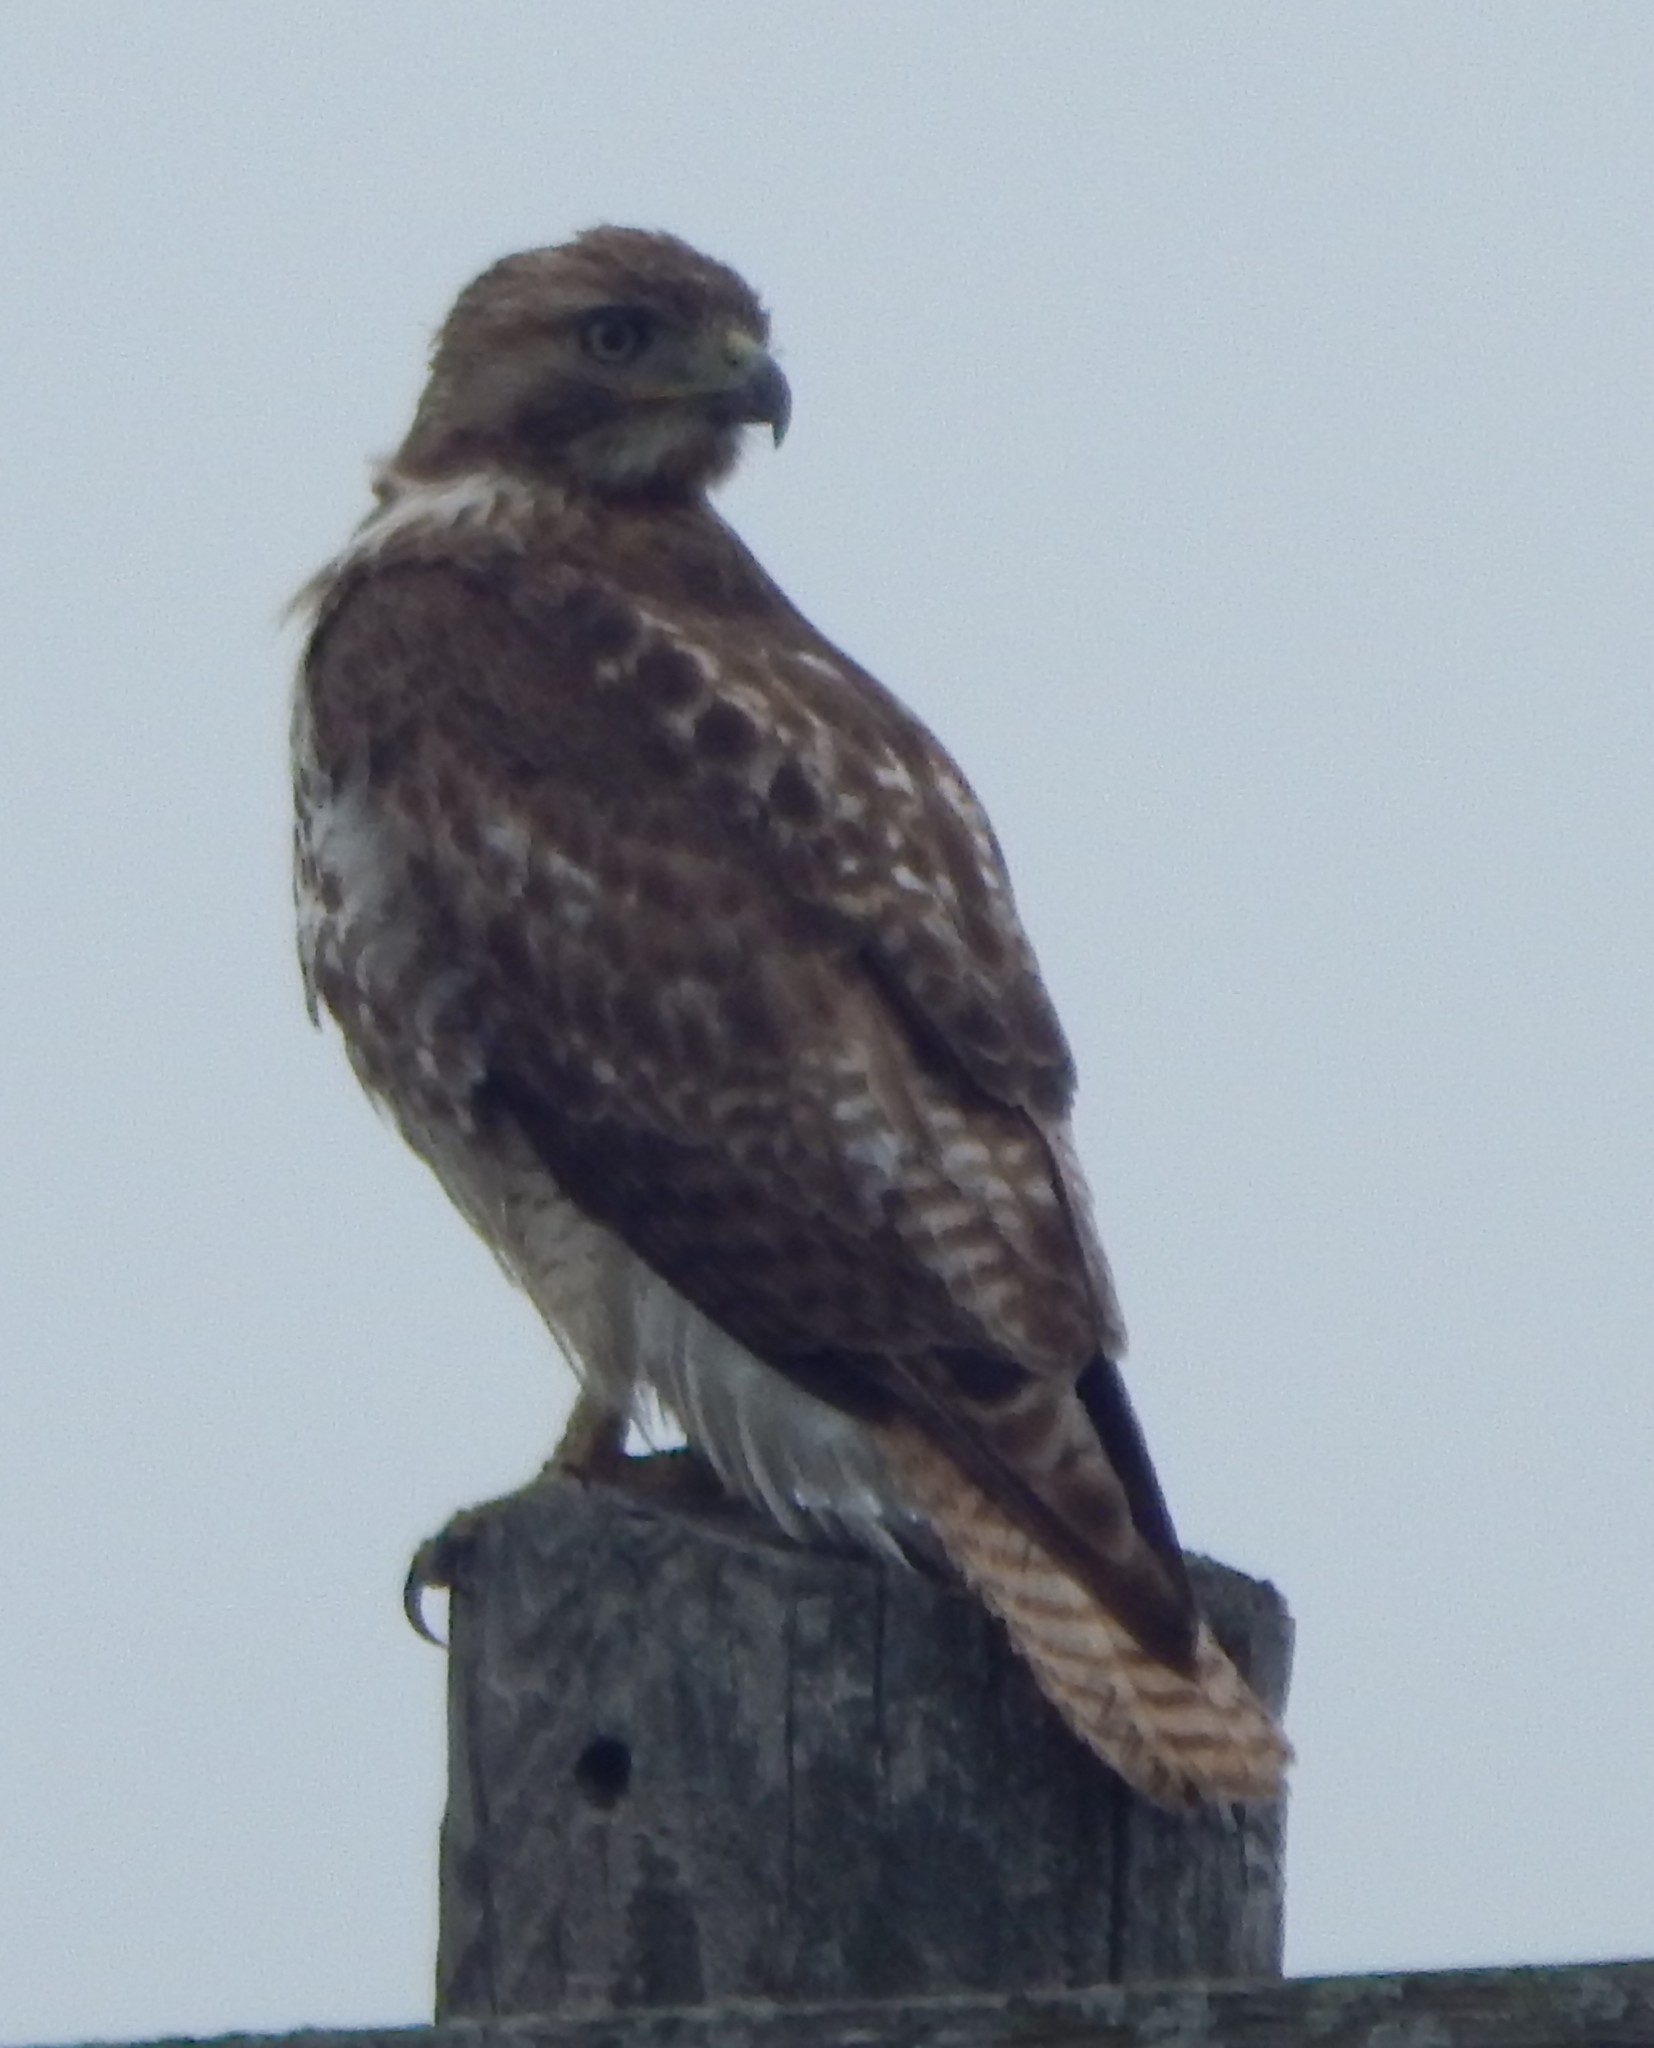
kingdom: Animalia
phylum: Chordata
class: Aves
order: Accipitriformes
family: Accipitridae
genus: Buteo
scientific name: Buteo jamaicensis
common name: Red-tailed hawk
